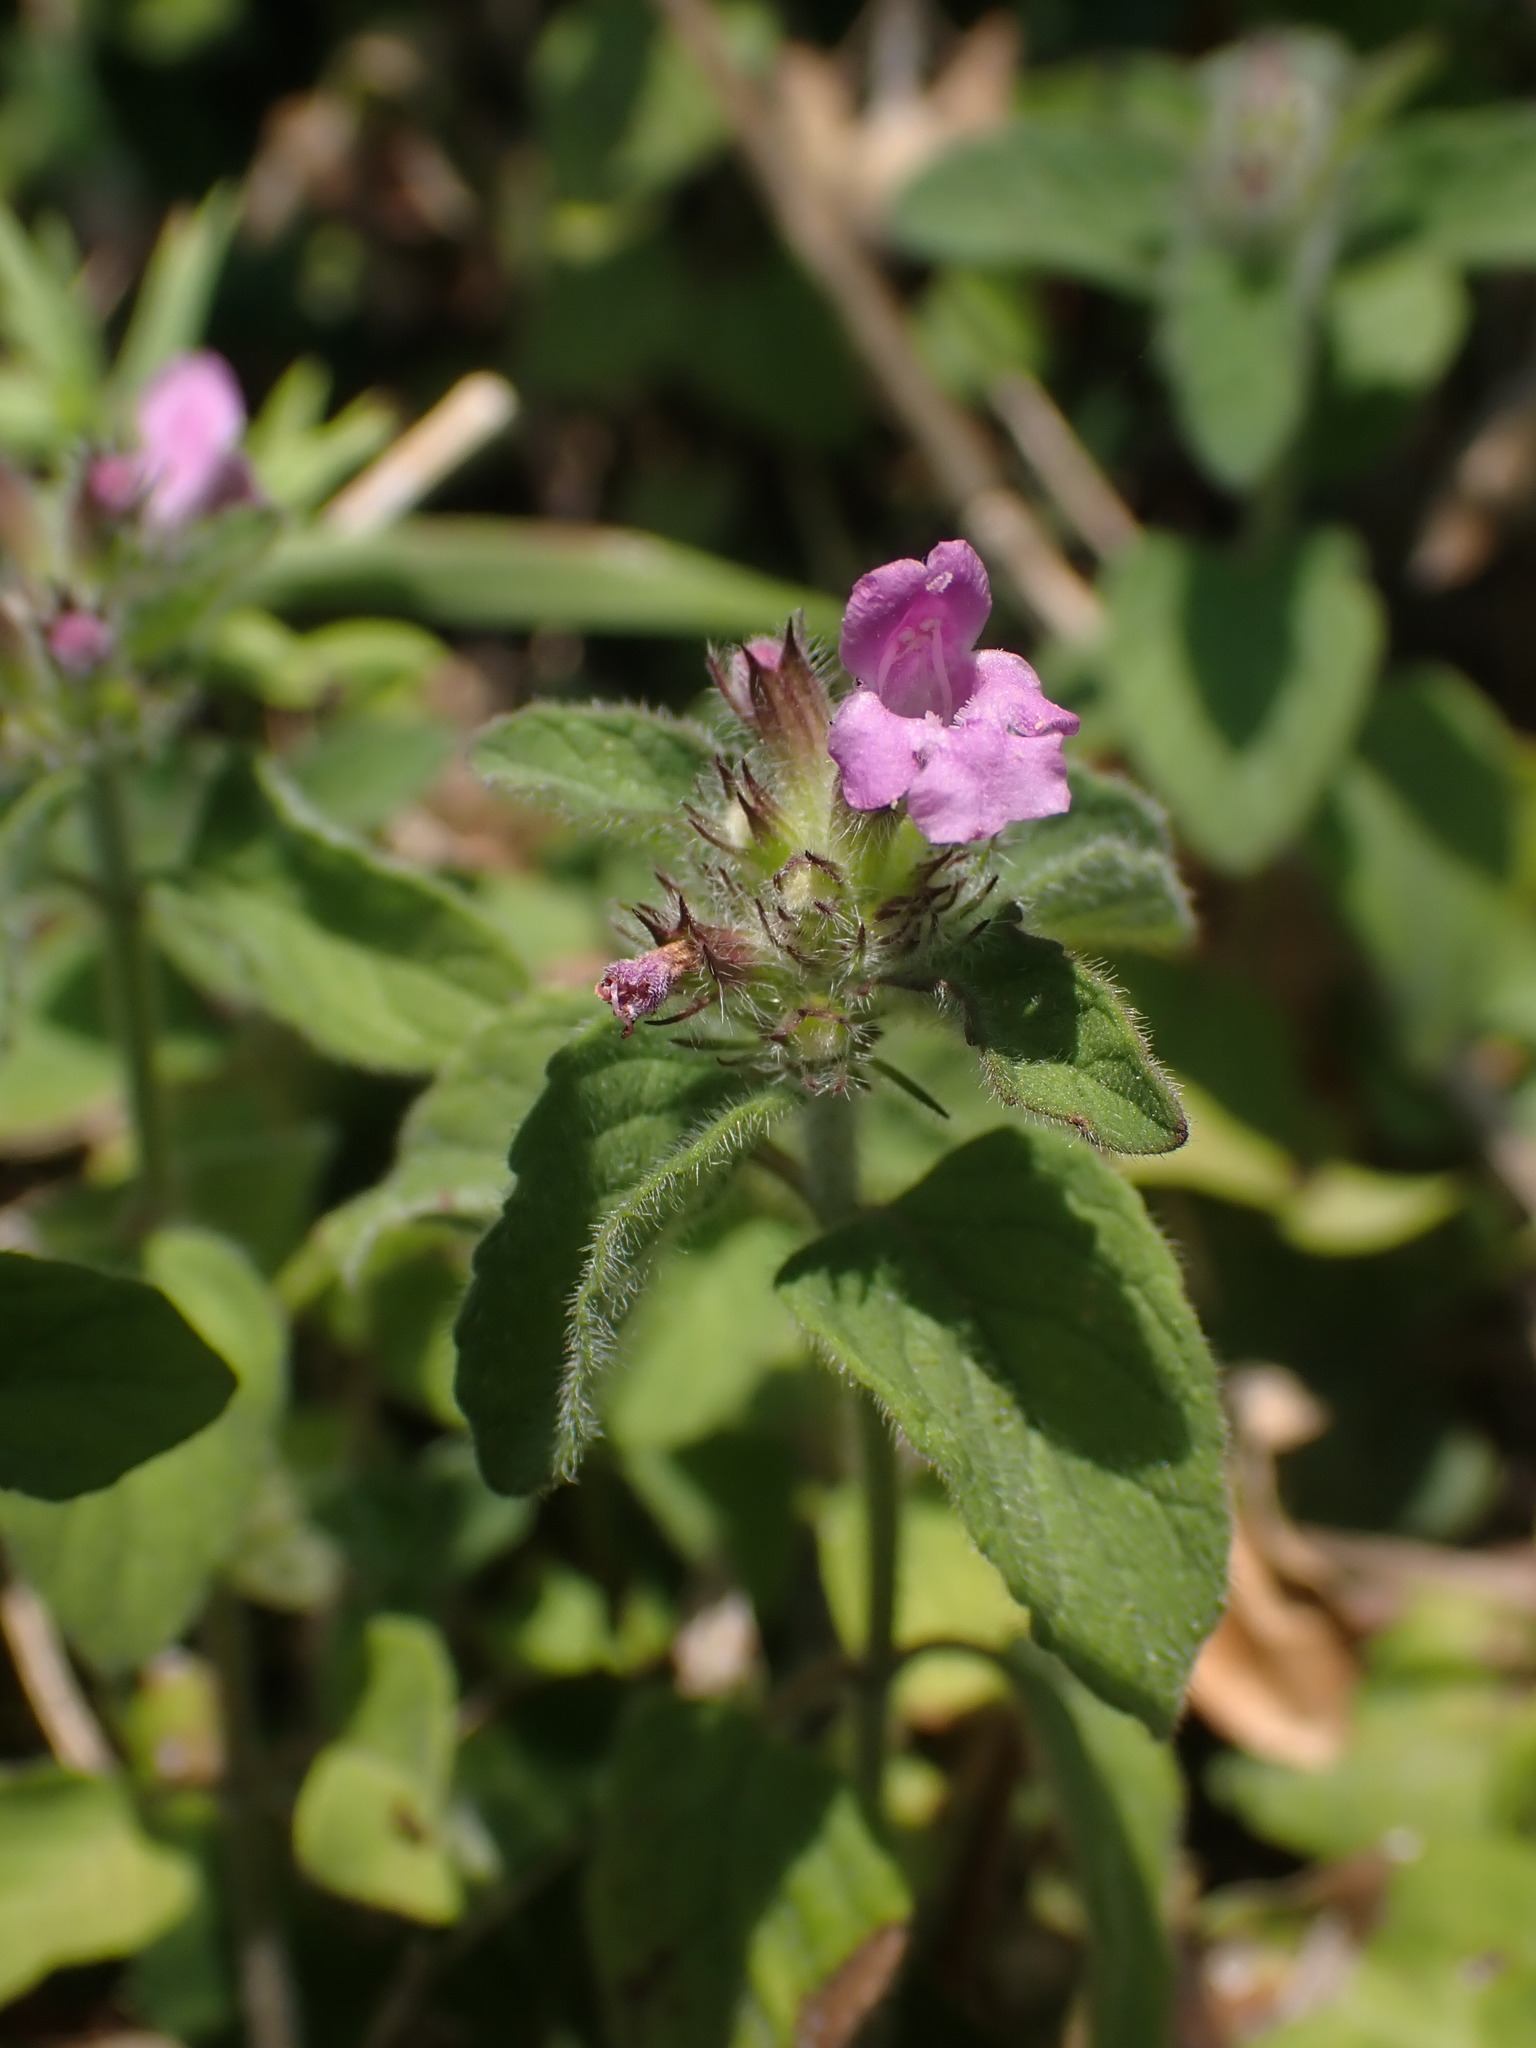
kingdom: Plantae
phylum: Tracheophyta
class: Magnoliopsida
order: Lamiales
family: Lamiaceae
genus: Clinopodium
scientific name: Clinopodium vulgare
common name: Wild basil
